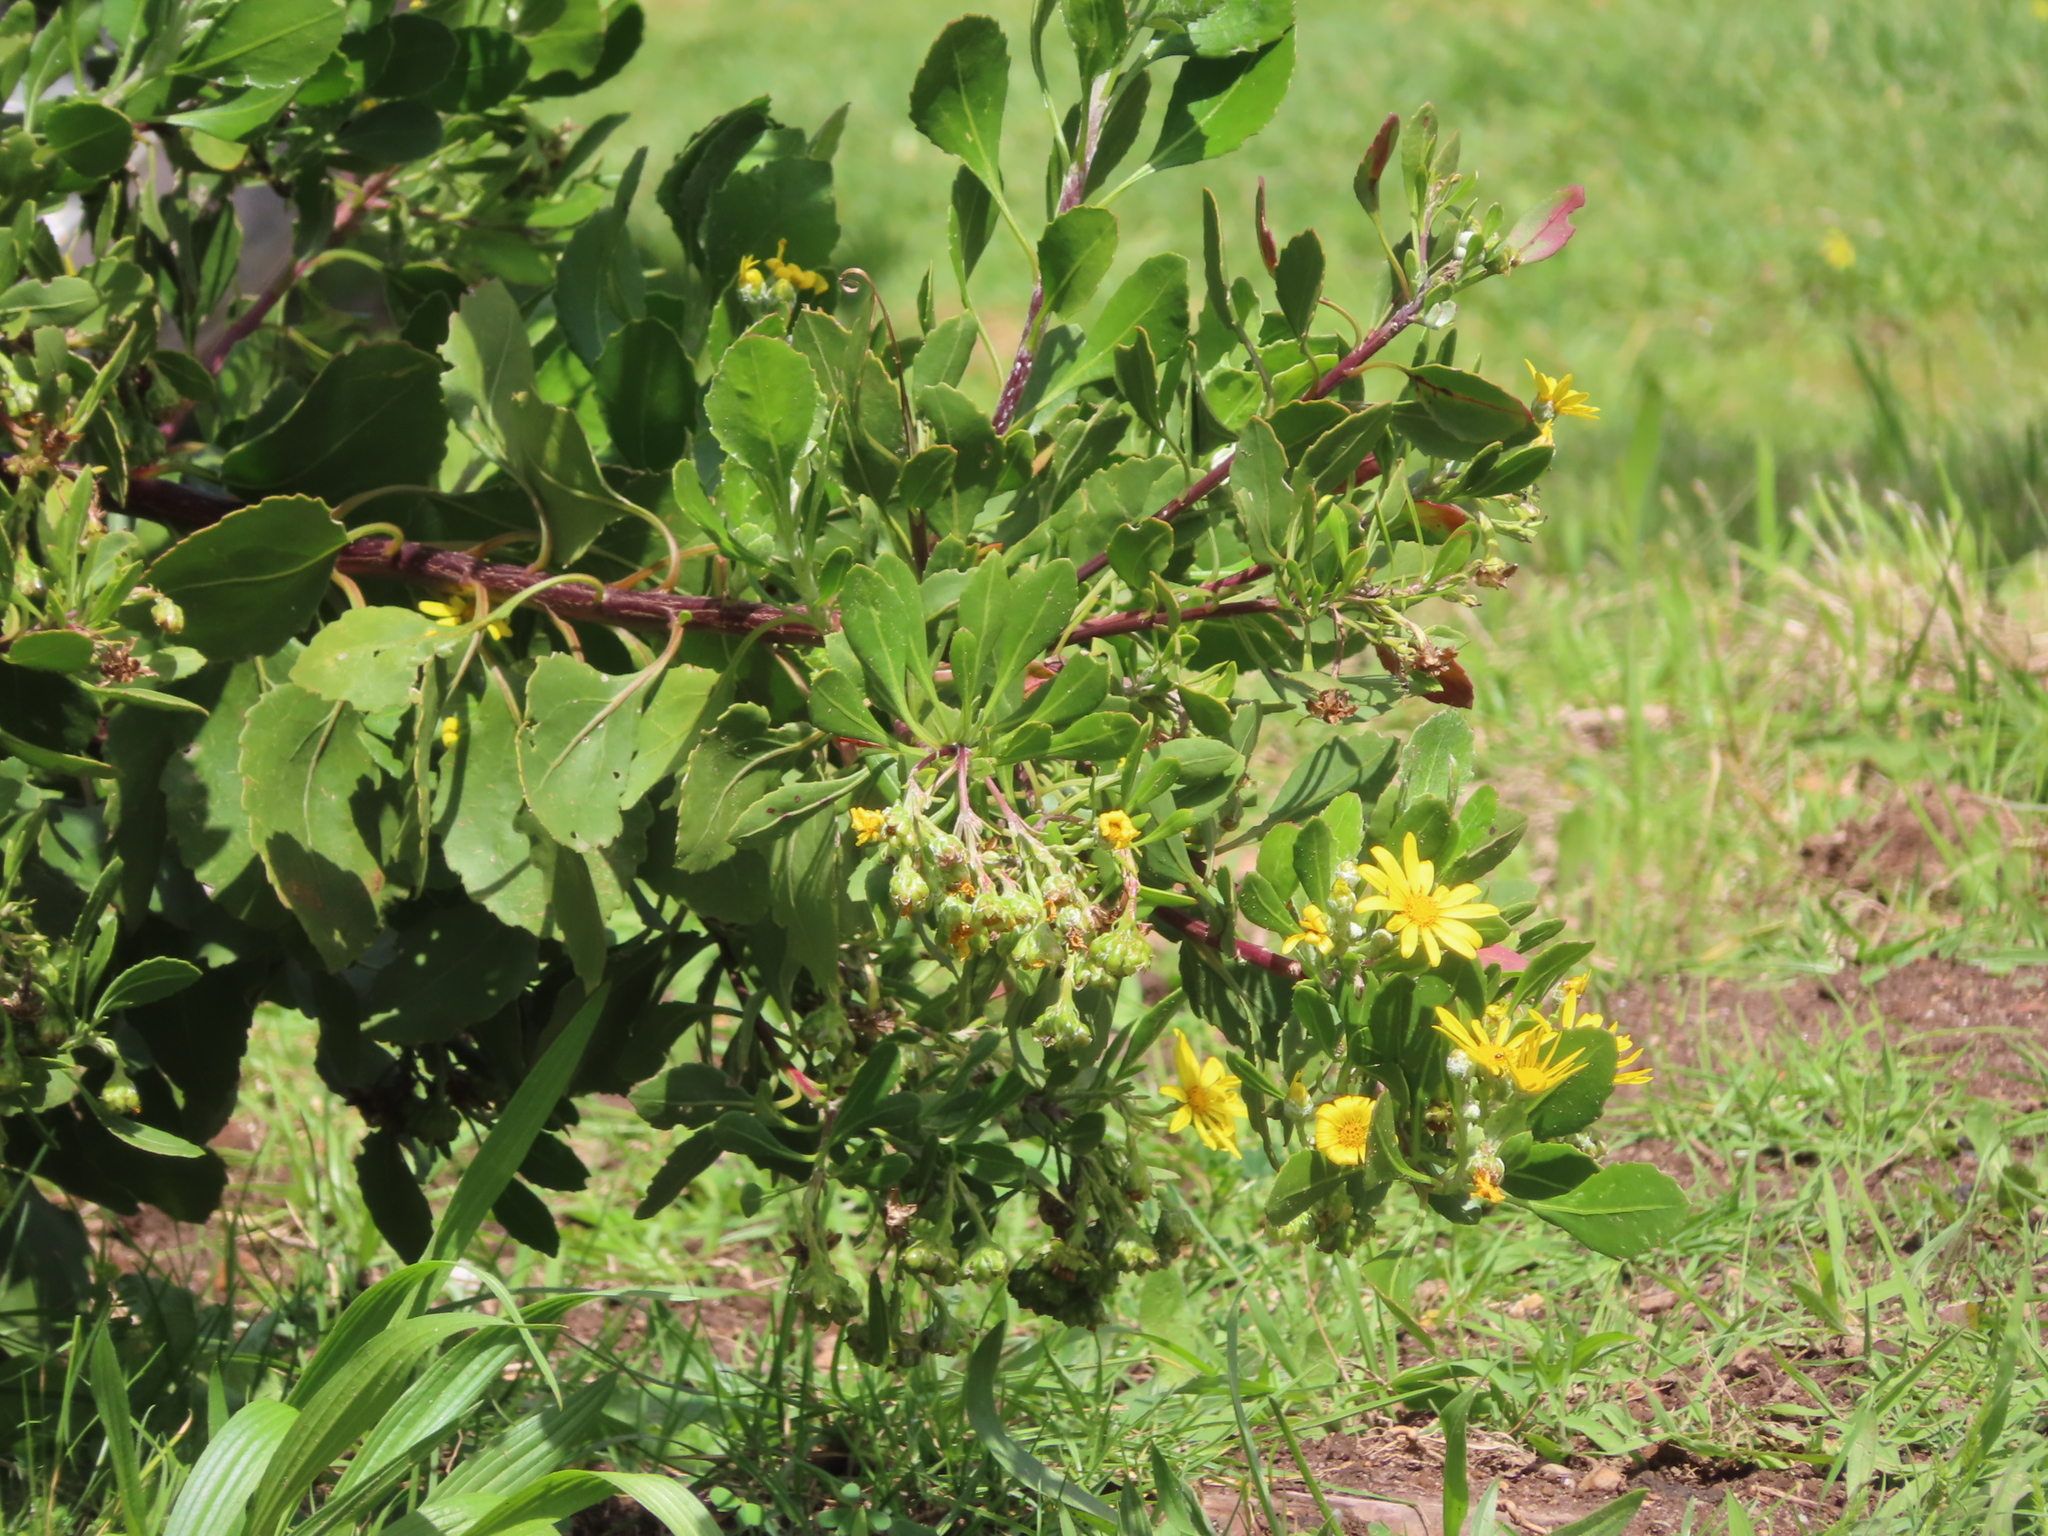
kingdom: Plantae
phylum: Tracheophyta
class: Magnoliopsida
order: Asterales
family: Asteraceae
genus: Osteospermum
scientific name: Osteospermum moniliferum
